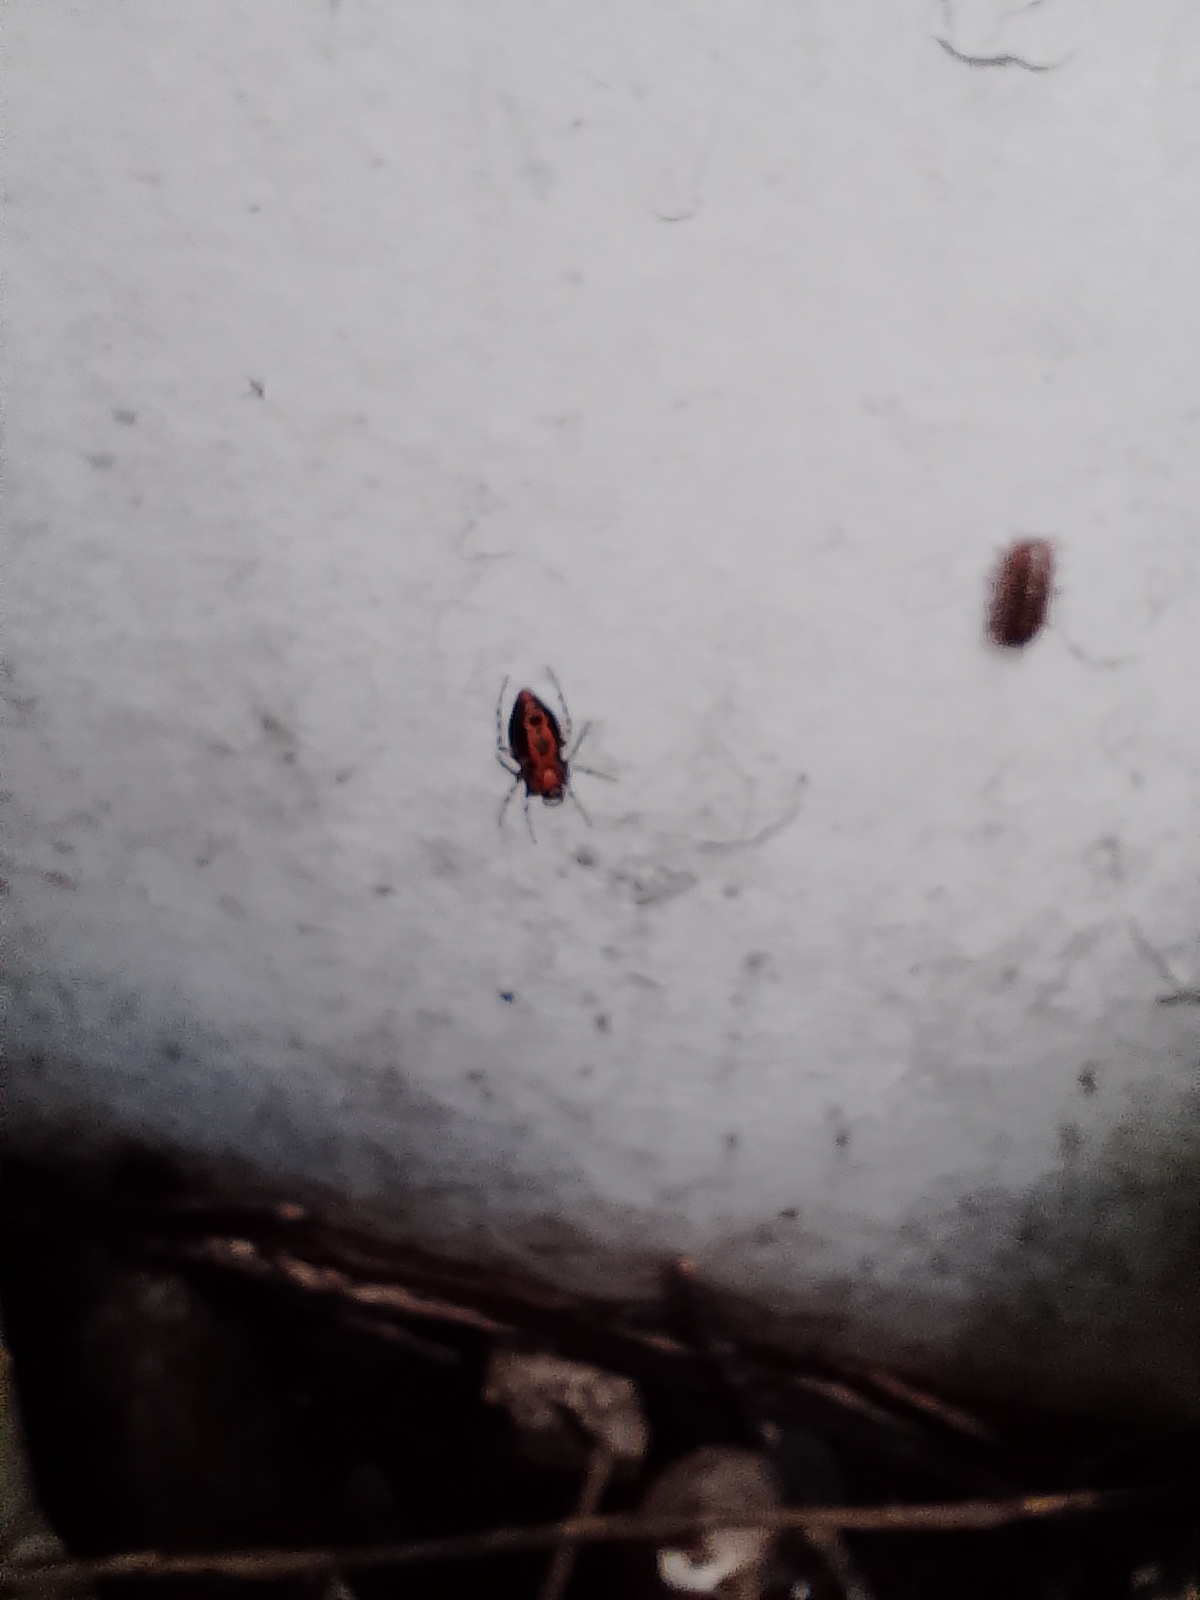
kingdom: Animalia
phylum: Arthropoda
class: Arachnida
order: Araneae
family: Araneidae
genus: Alpaida
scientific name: Alpaida gallardoi
